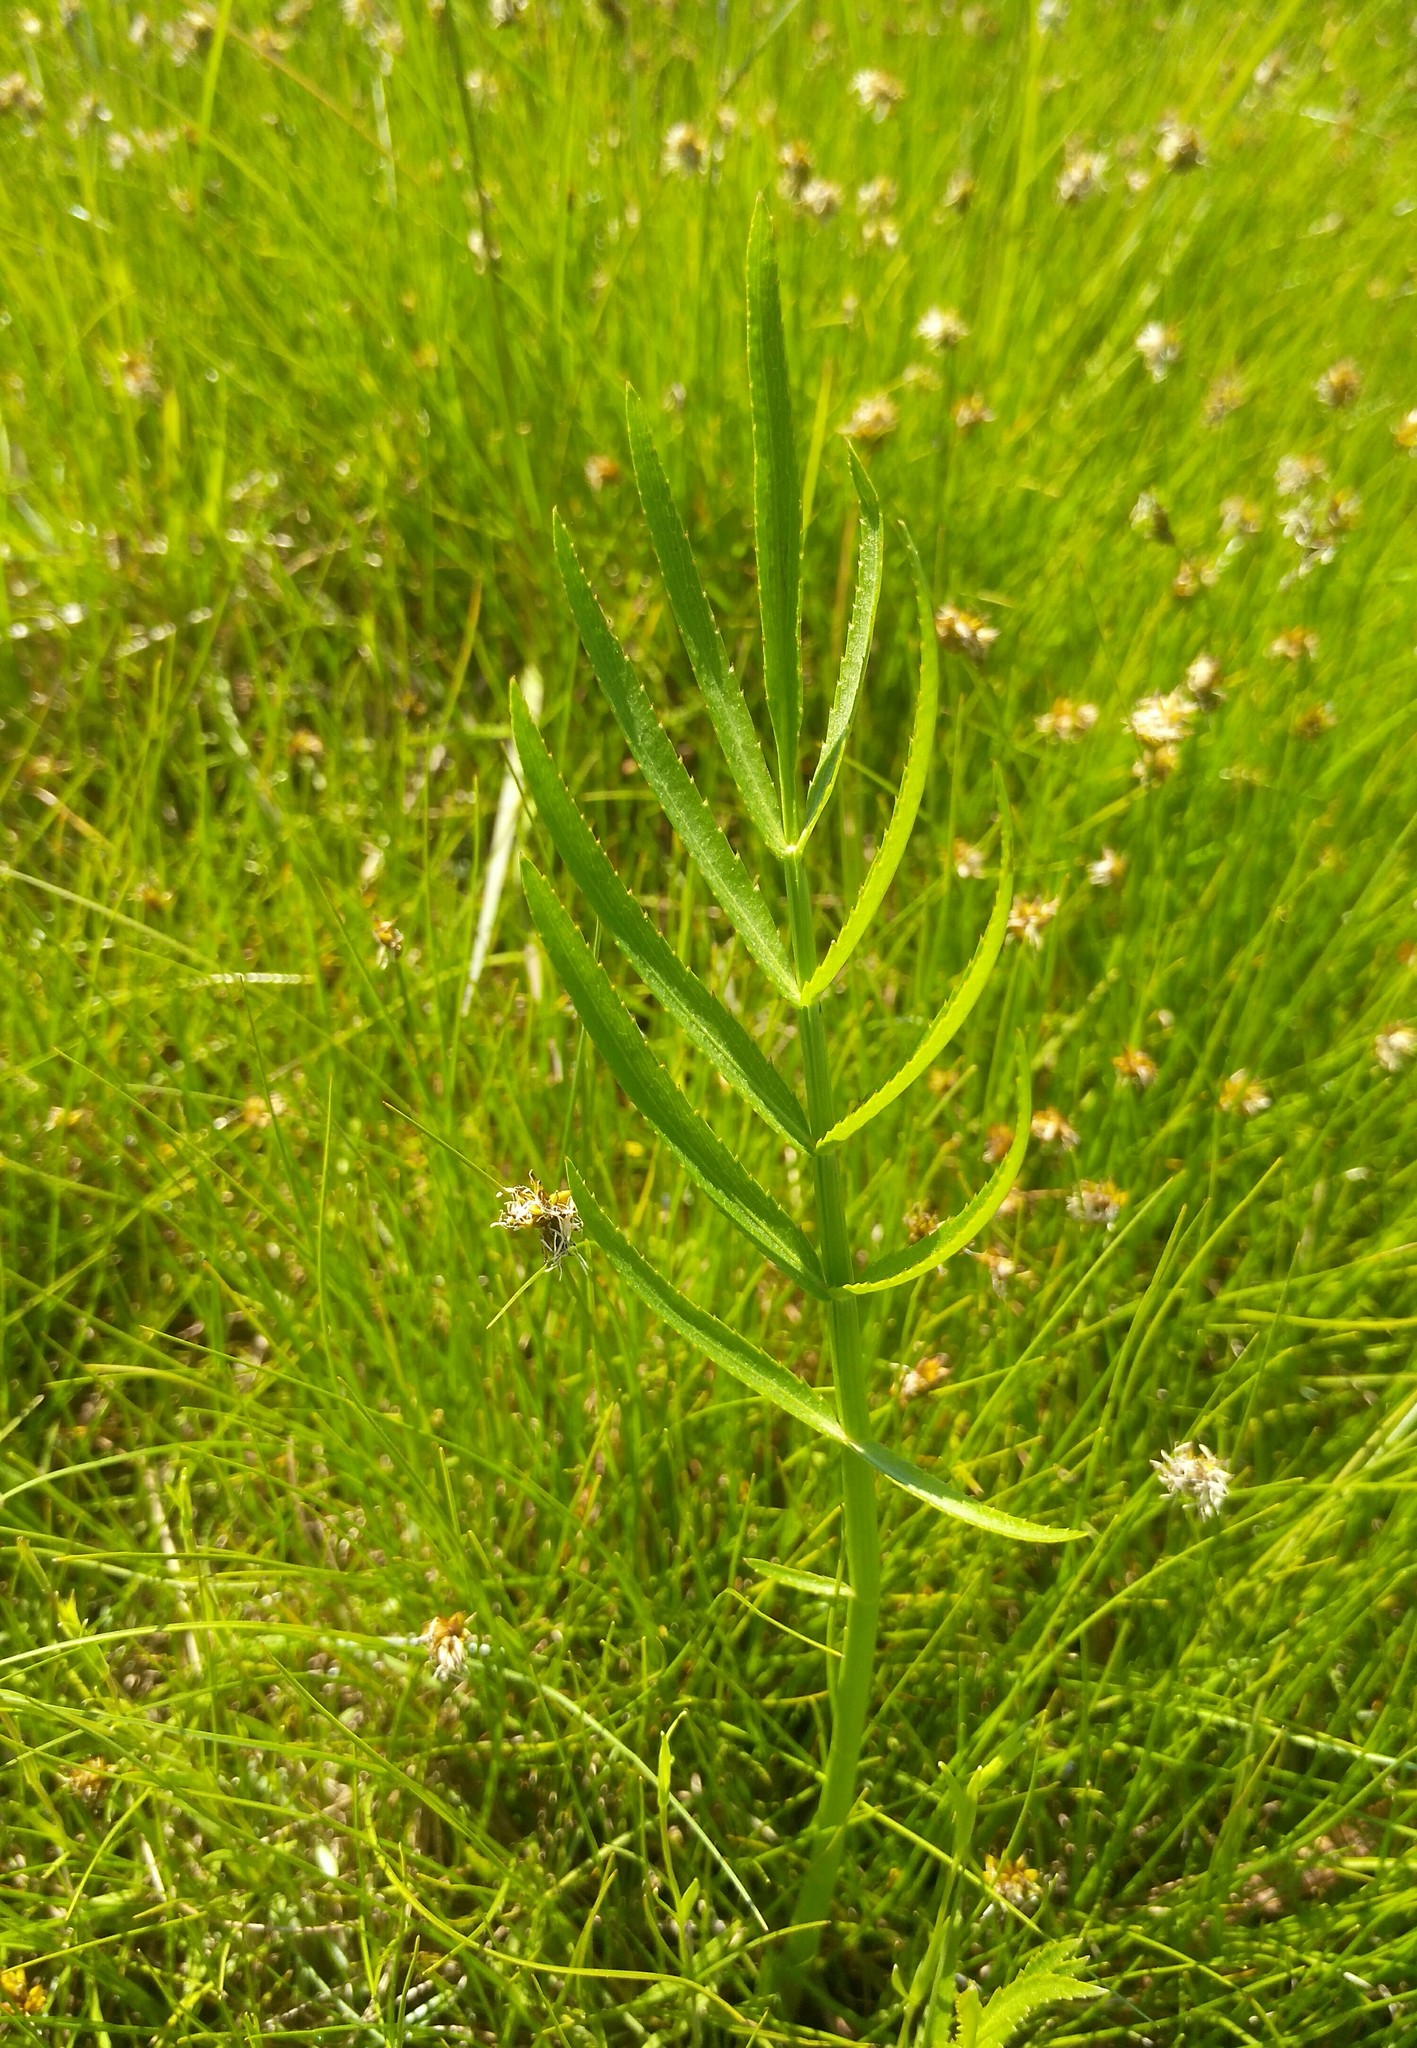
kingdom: Plantae
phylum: Tracheophyta
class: Magnoliopsida
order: Apiales
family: Apiaceae
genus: Sium
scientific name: Sium suave
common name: Hemlock water-parsnip
